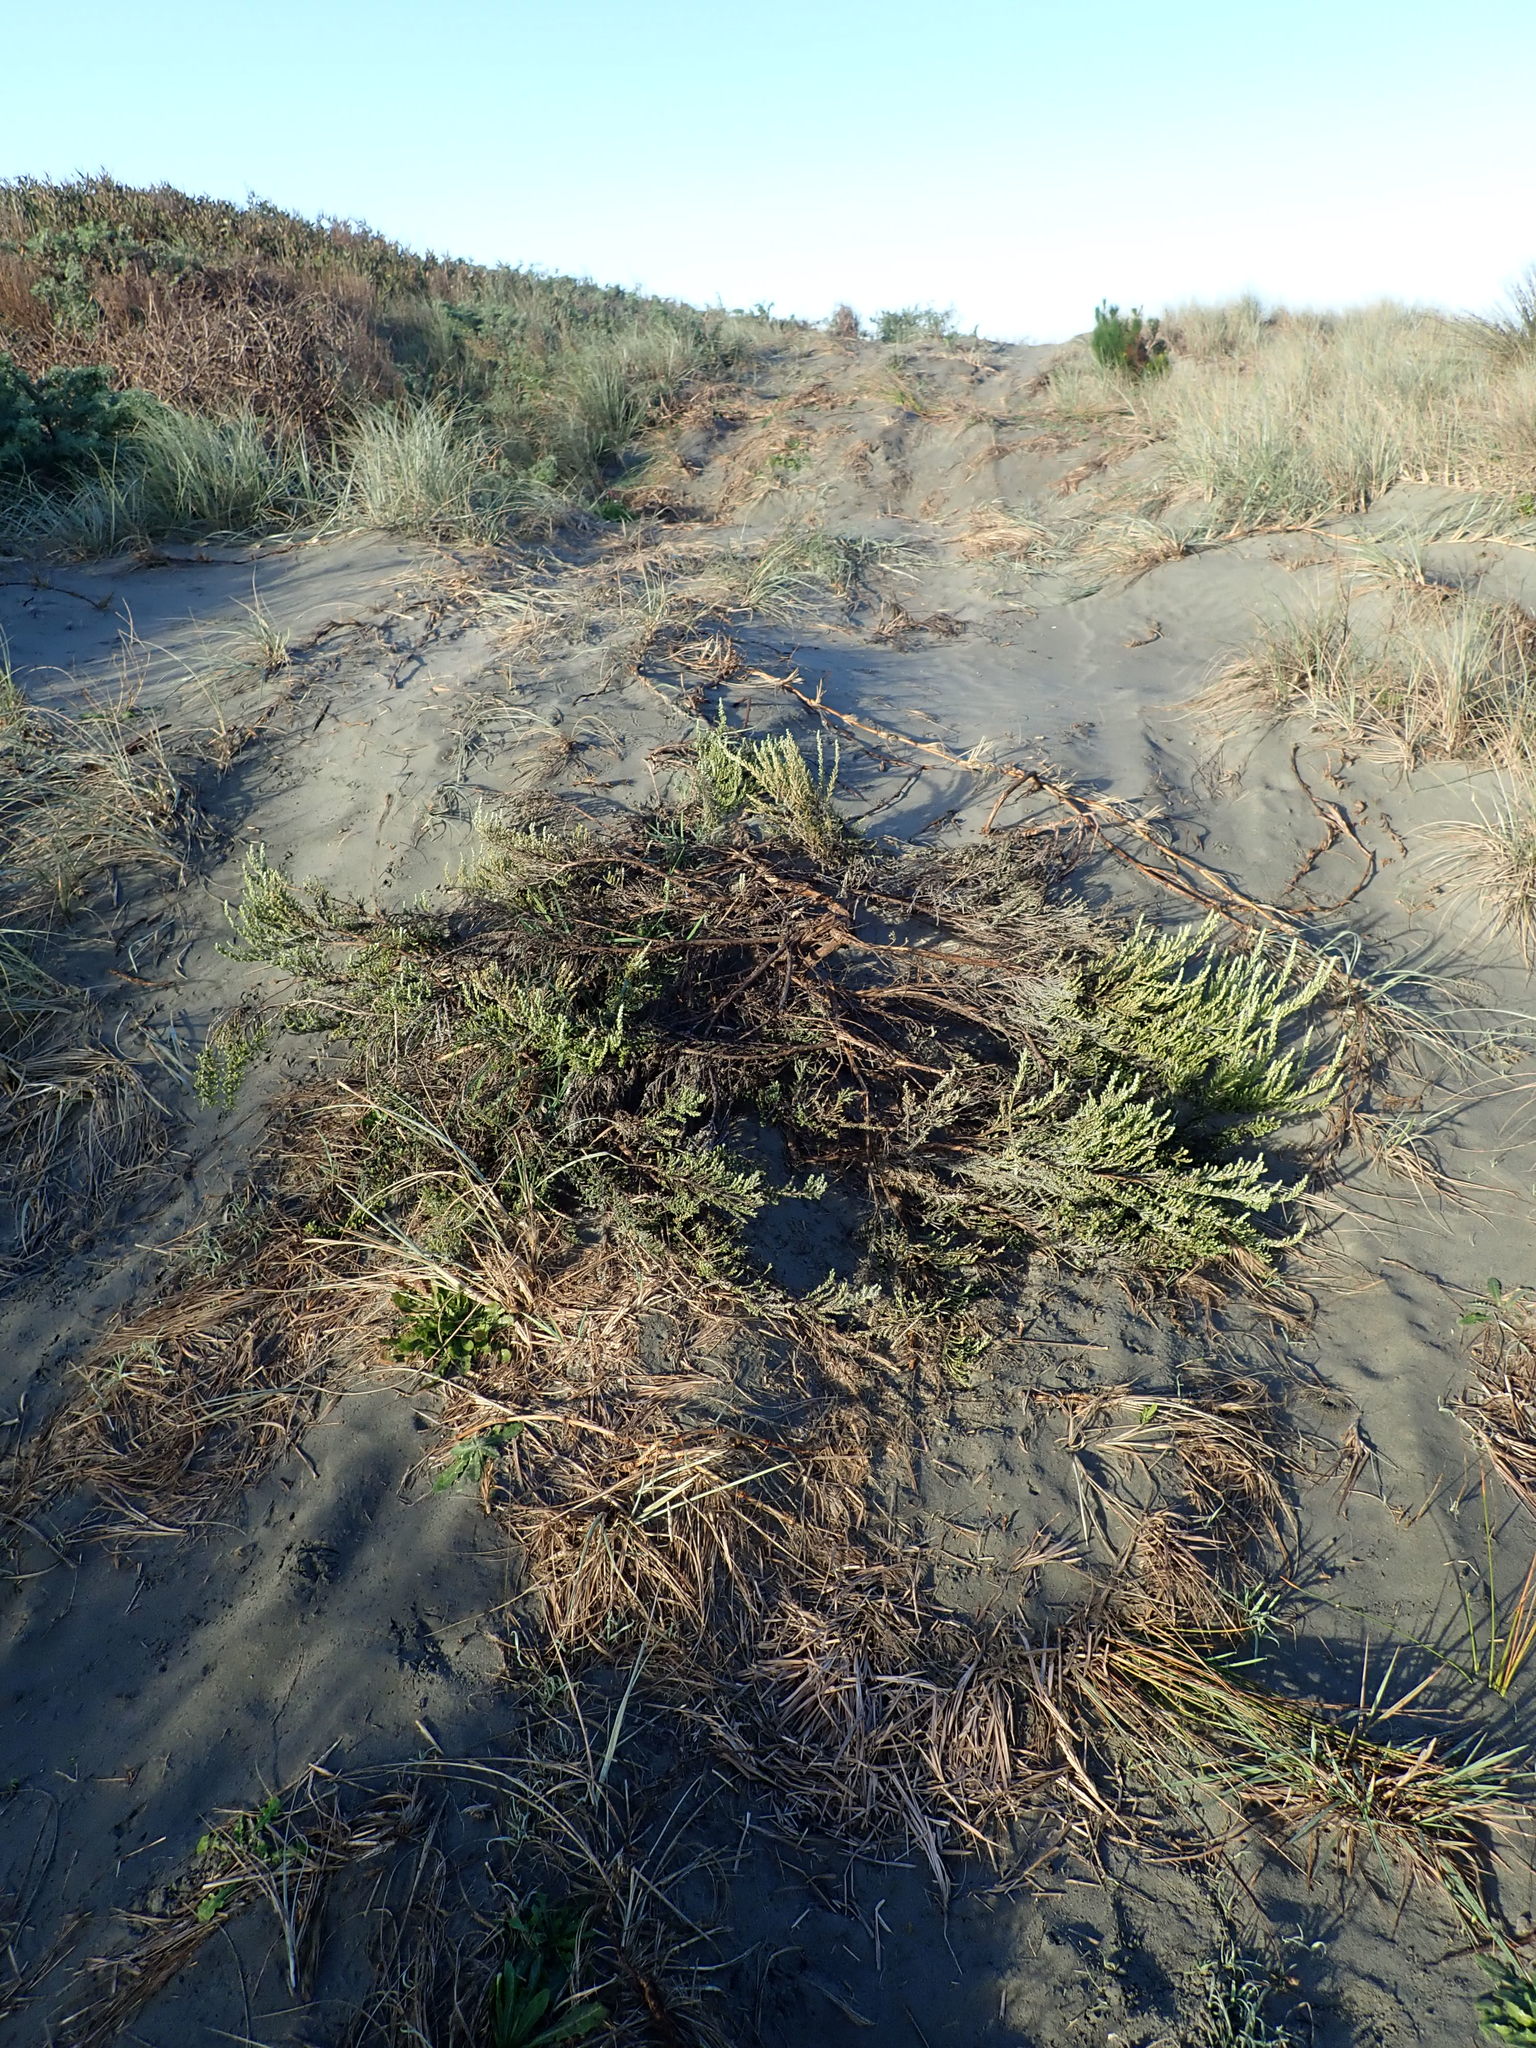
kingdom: Plantae
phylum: Tracheophyta
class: Magnoliopsida
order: Asterales
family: Asteraceae
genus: Ozothamnus
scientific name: Ozothamnus leptophyllus
